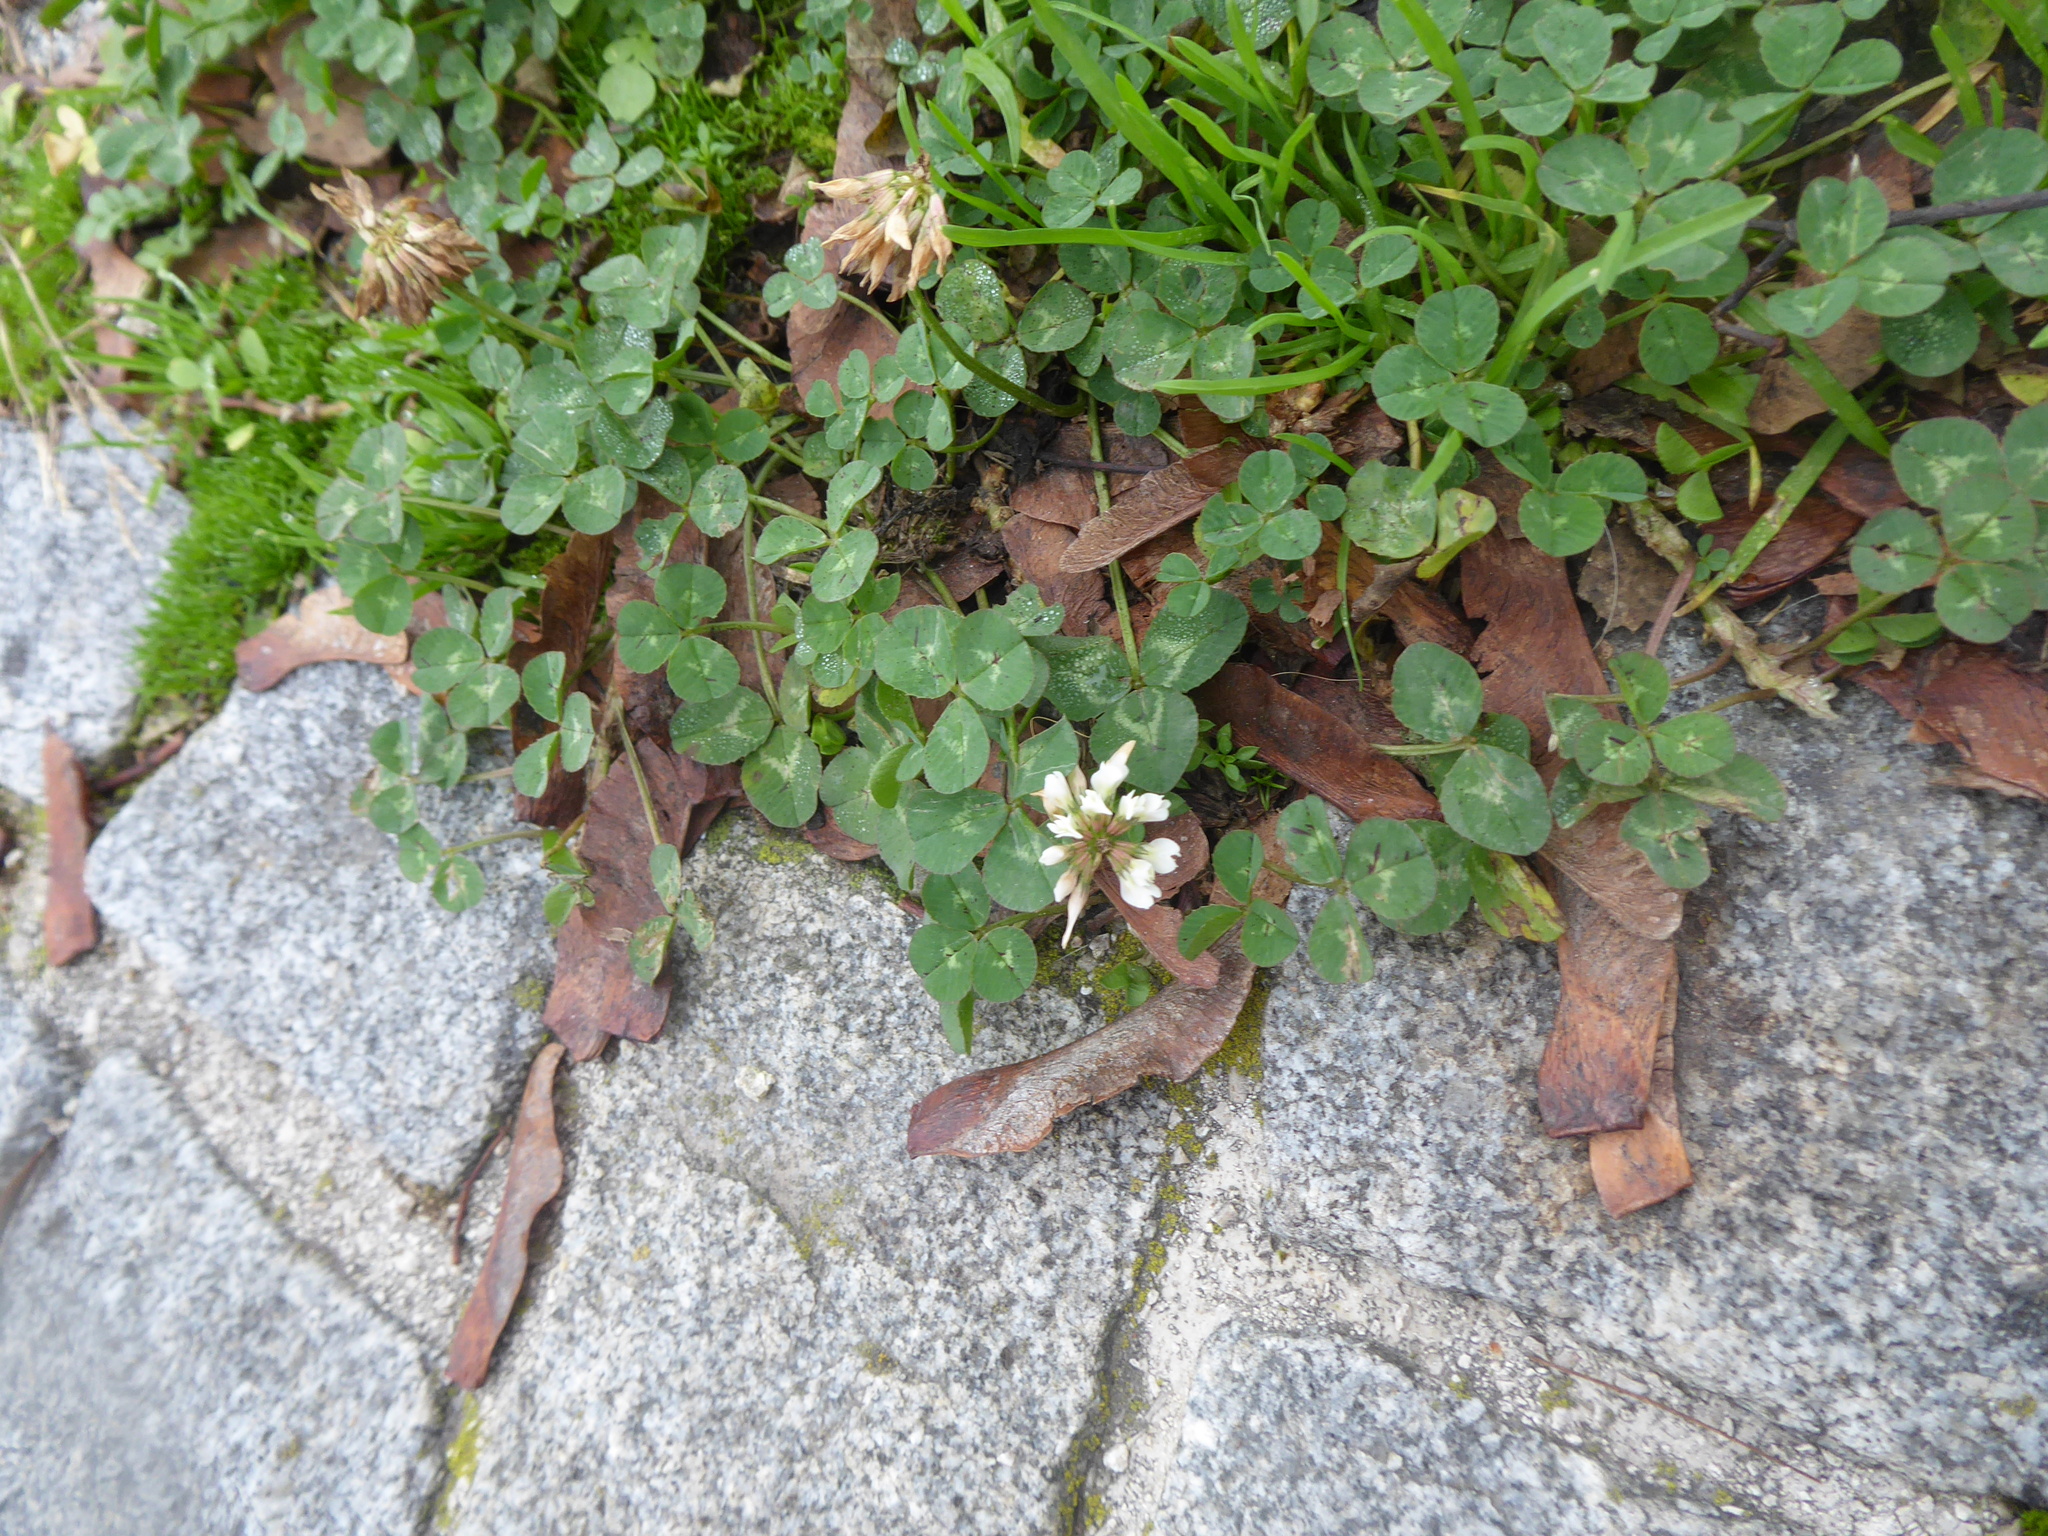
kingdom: Plantae
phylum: Tracheophyta
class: Magnoliopsida
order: Fabales
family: Fabaceae
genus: Trifolium
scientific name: Trifolium repens
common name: White clover
